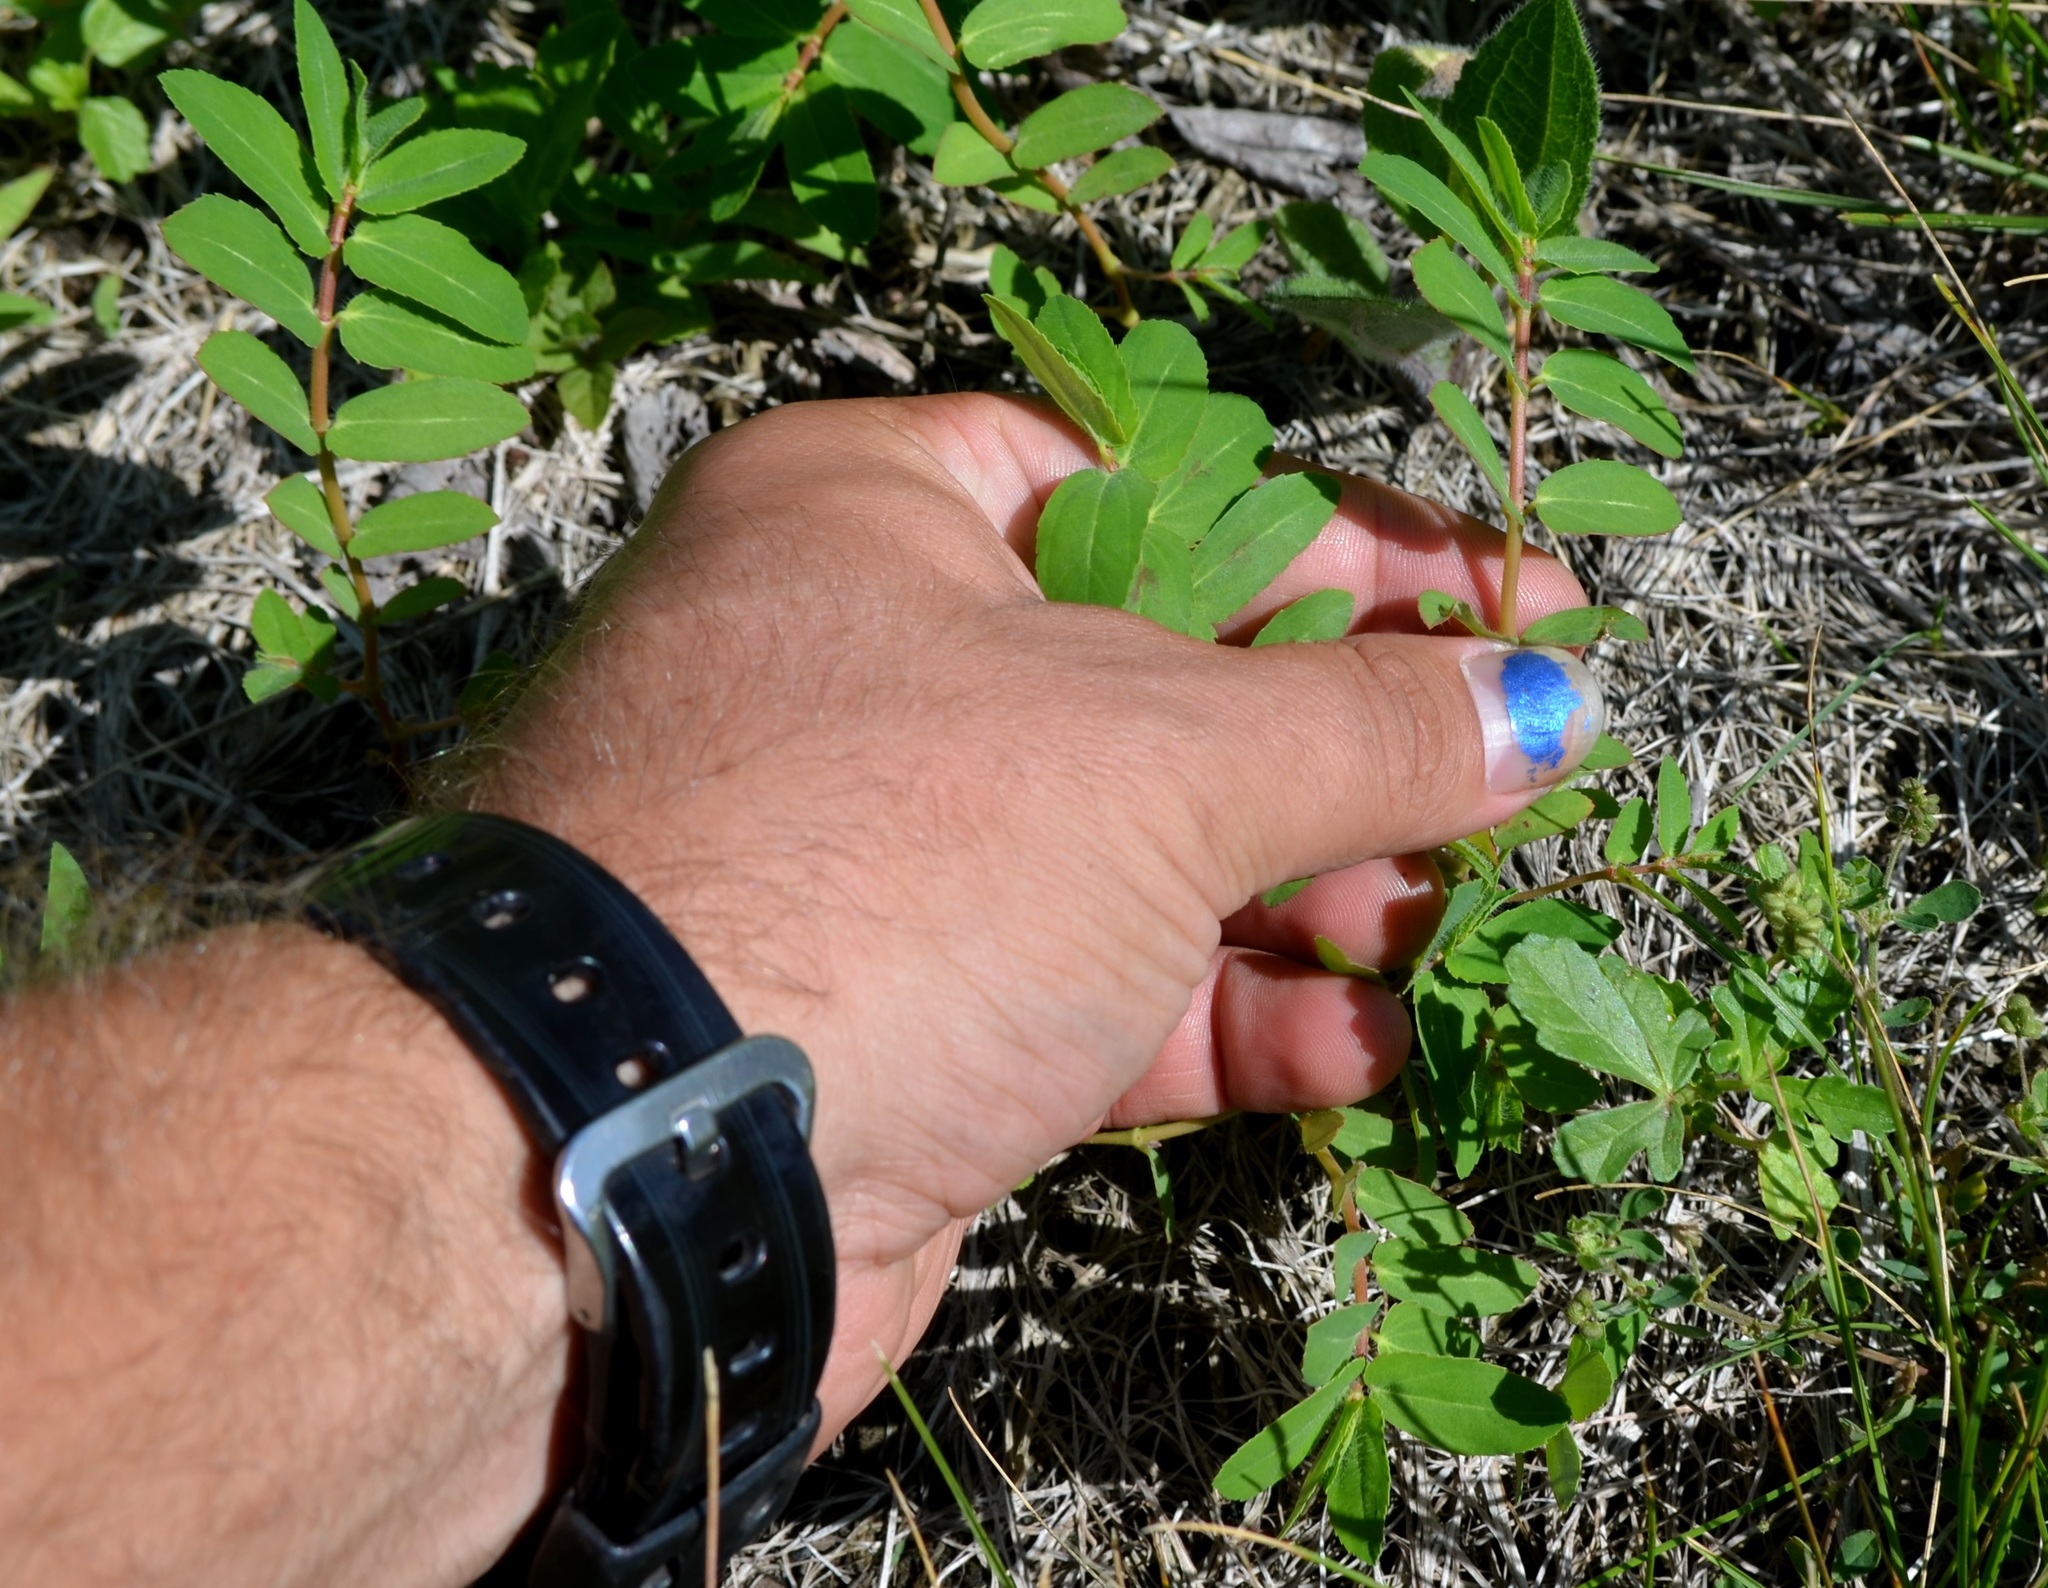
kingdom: Plantae
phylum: Tracheophyta
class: Magnoliopsida
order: Malpighiales
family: Euphorbiaceae
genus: Euphorbia
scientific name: Euphorbia nutans
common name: Eyebane
